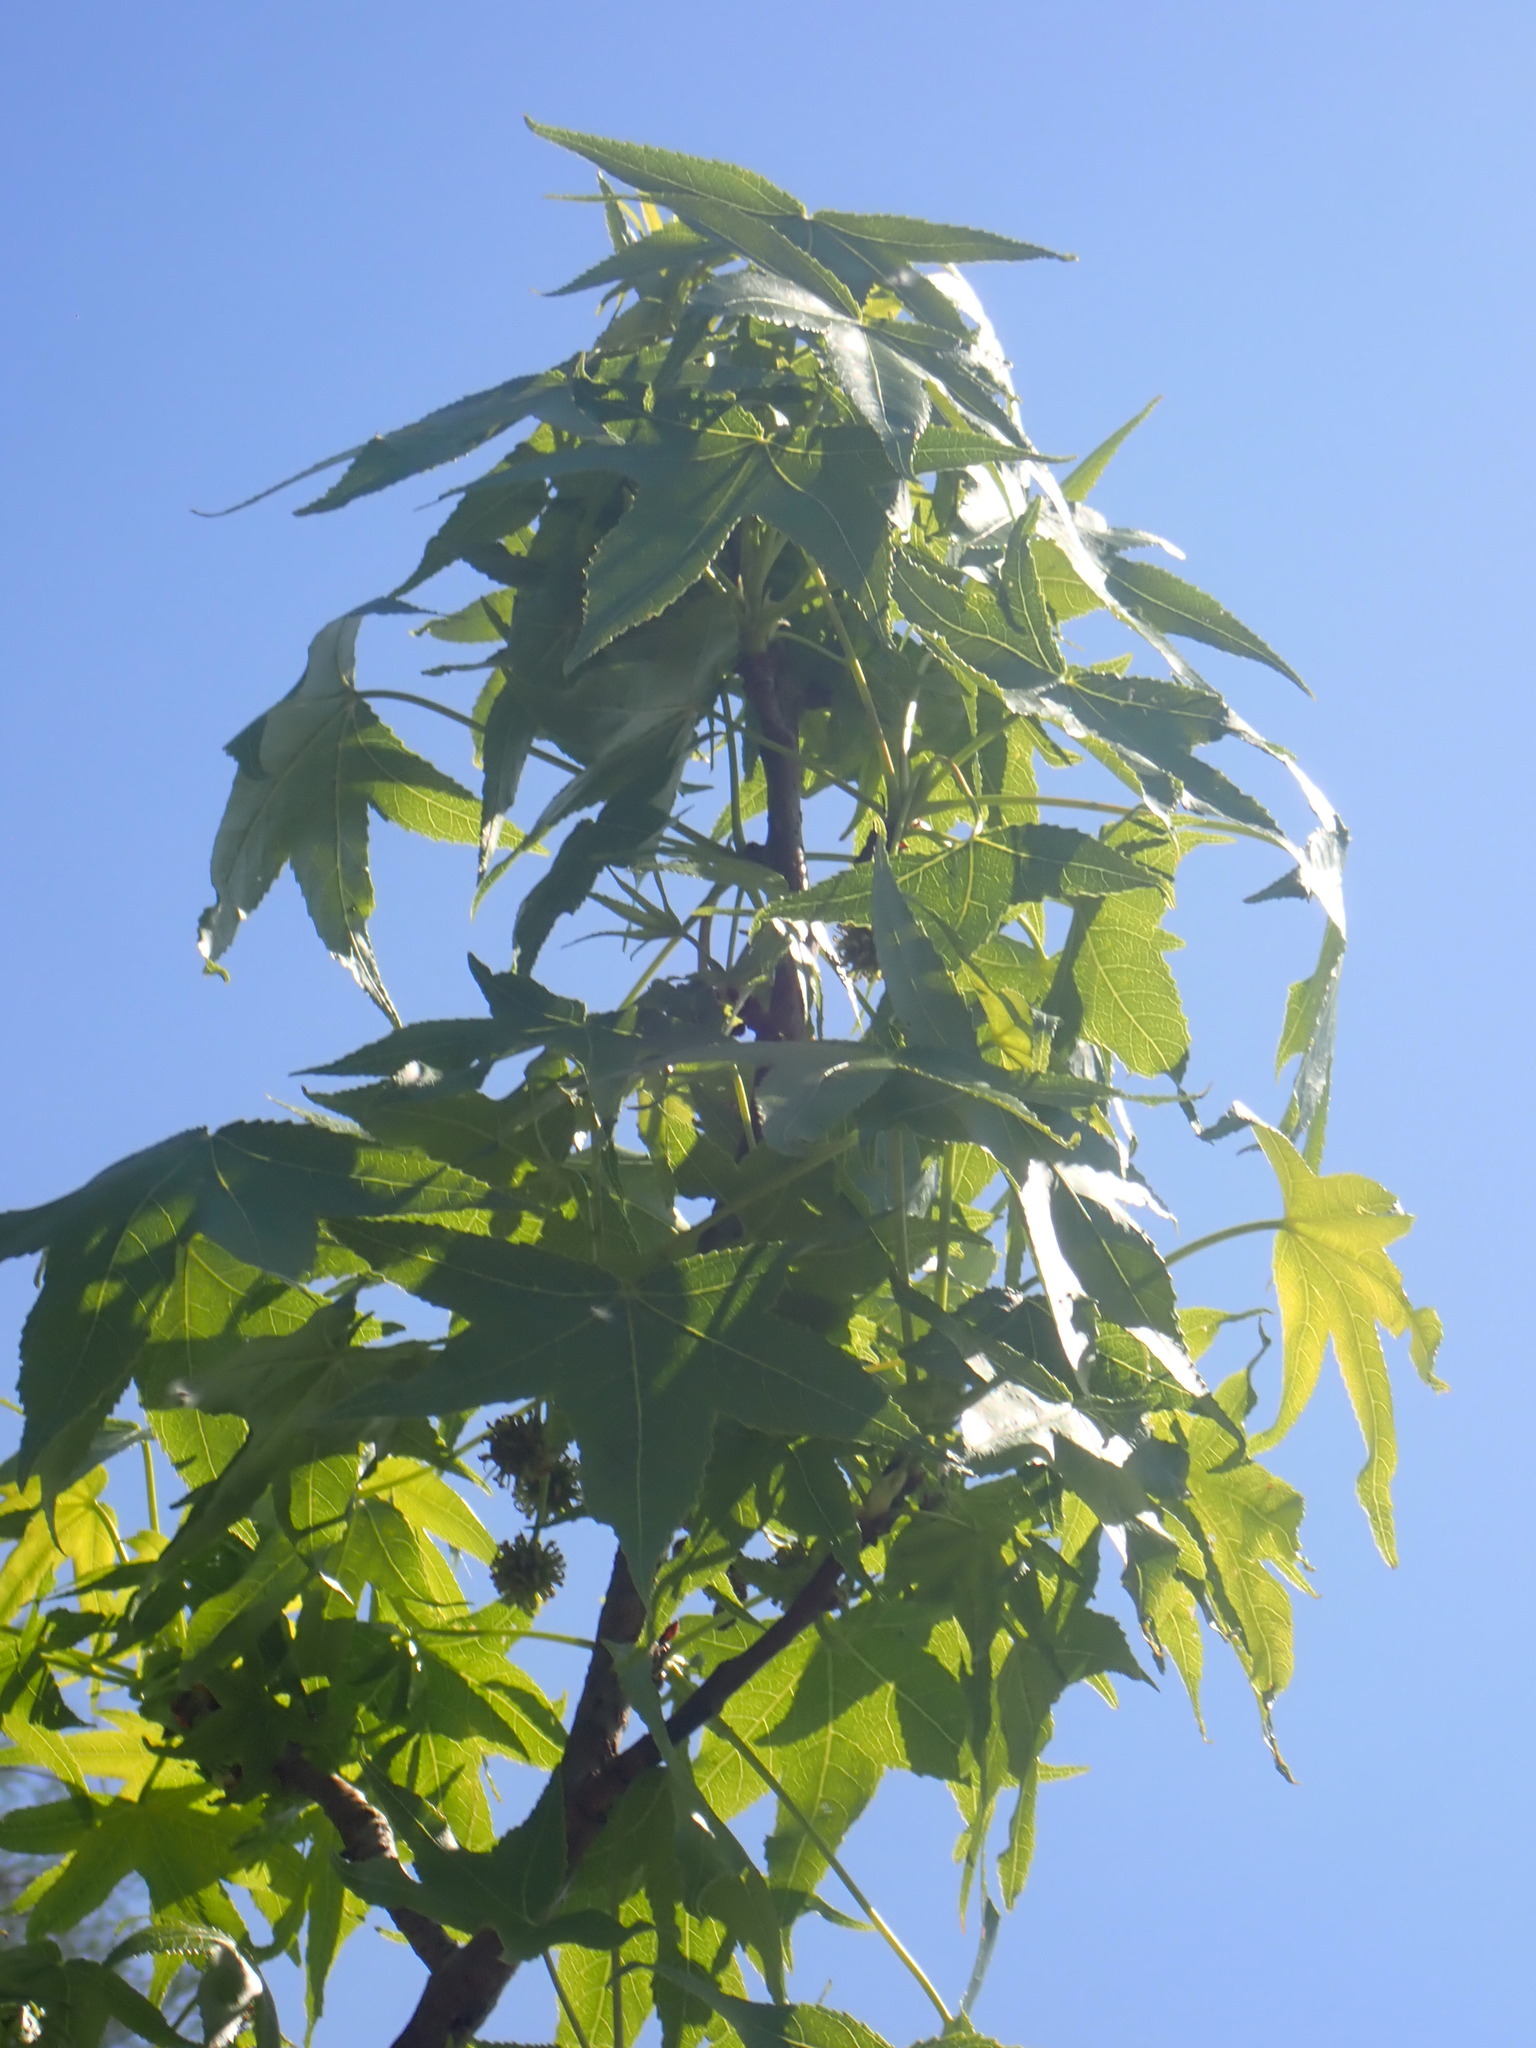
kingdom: Plantae
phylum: Tracheophyta
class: Magnoliopsida
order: Saxifragales
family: Altingiaceae
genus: Liquidambar
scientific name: Liquidambar styraciflua
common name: Sweet gum
